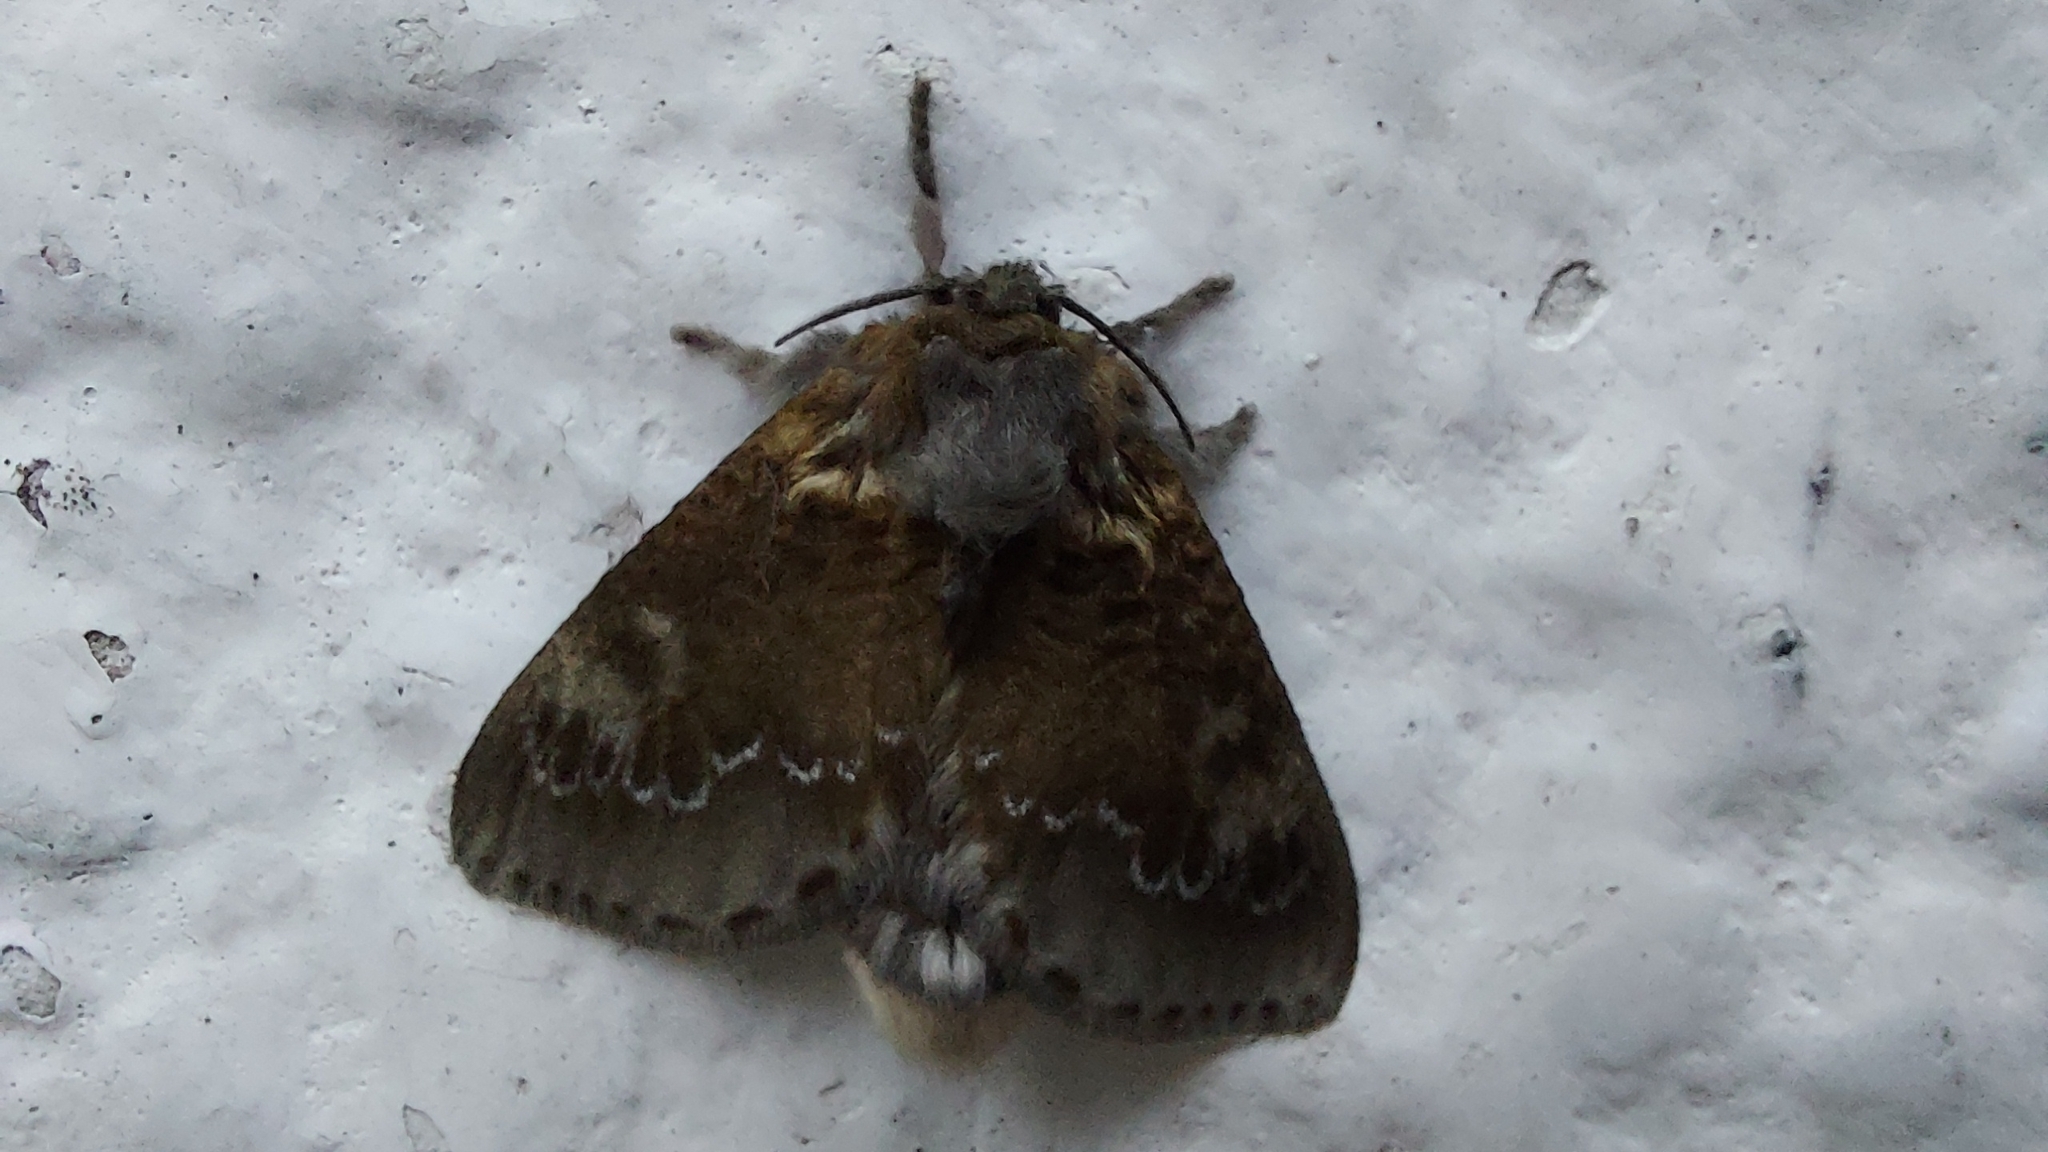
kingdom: Animalia
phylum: Arthropoda
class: Insecta
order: Lepidoptera
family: Megalopygidae
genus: Podalia
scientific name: Podalia contigua
